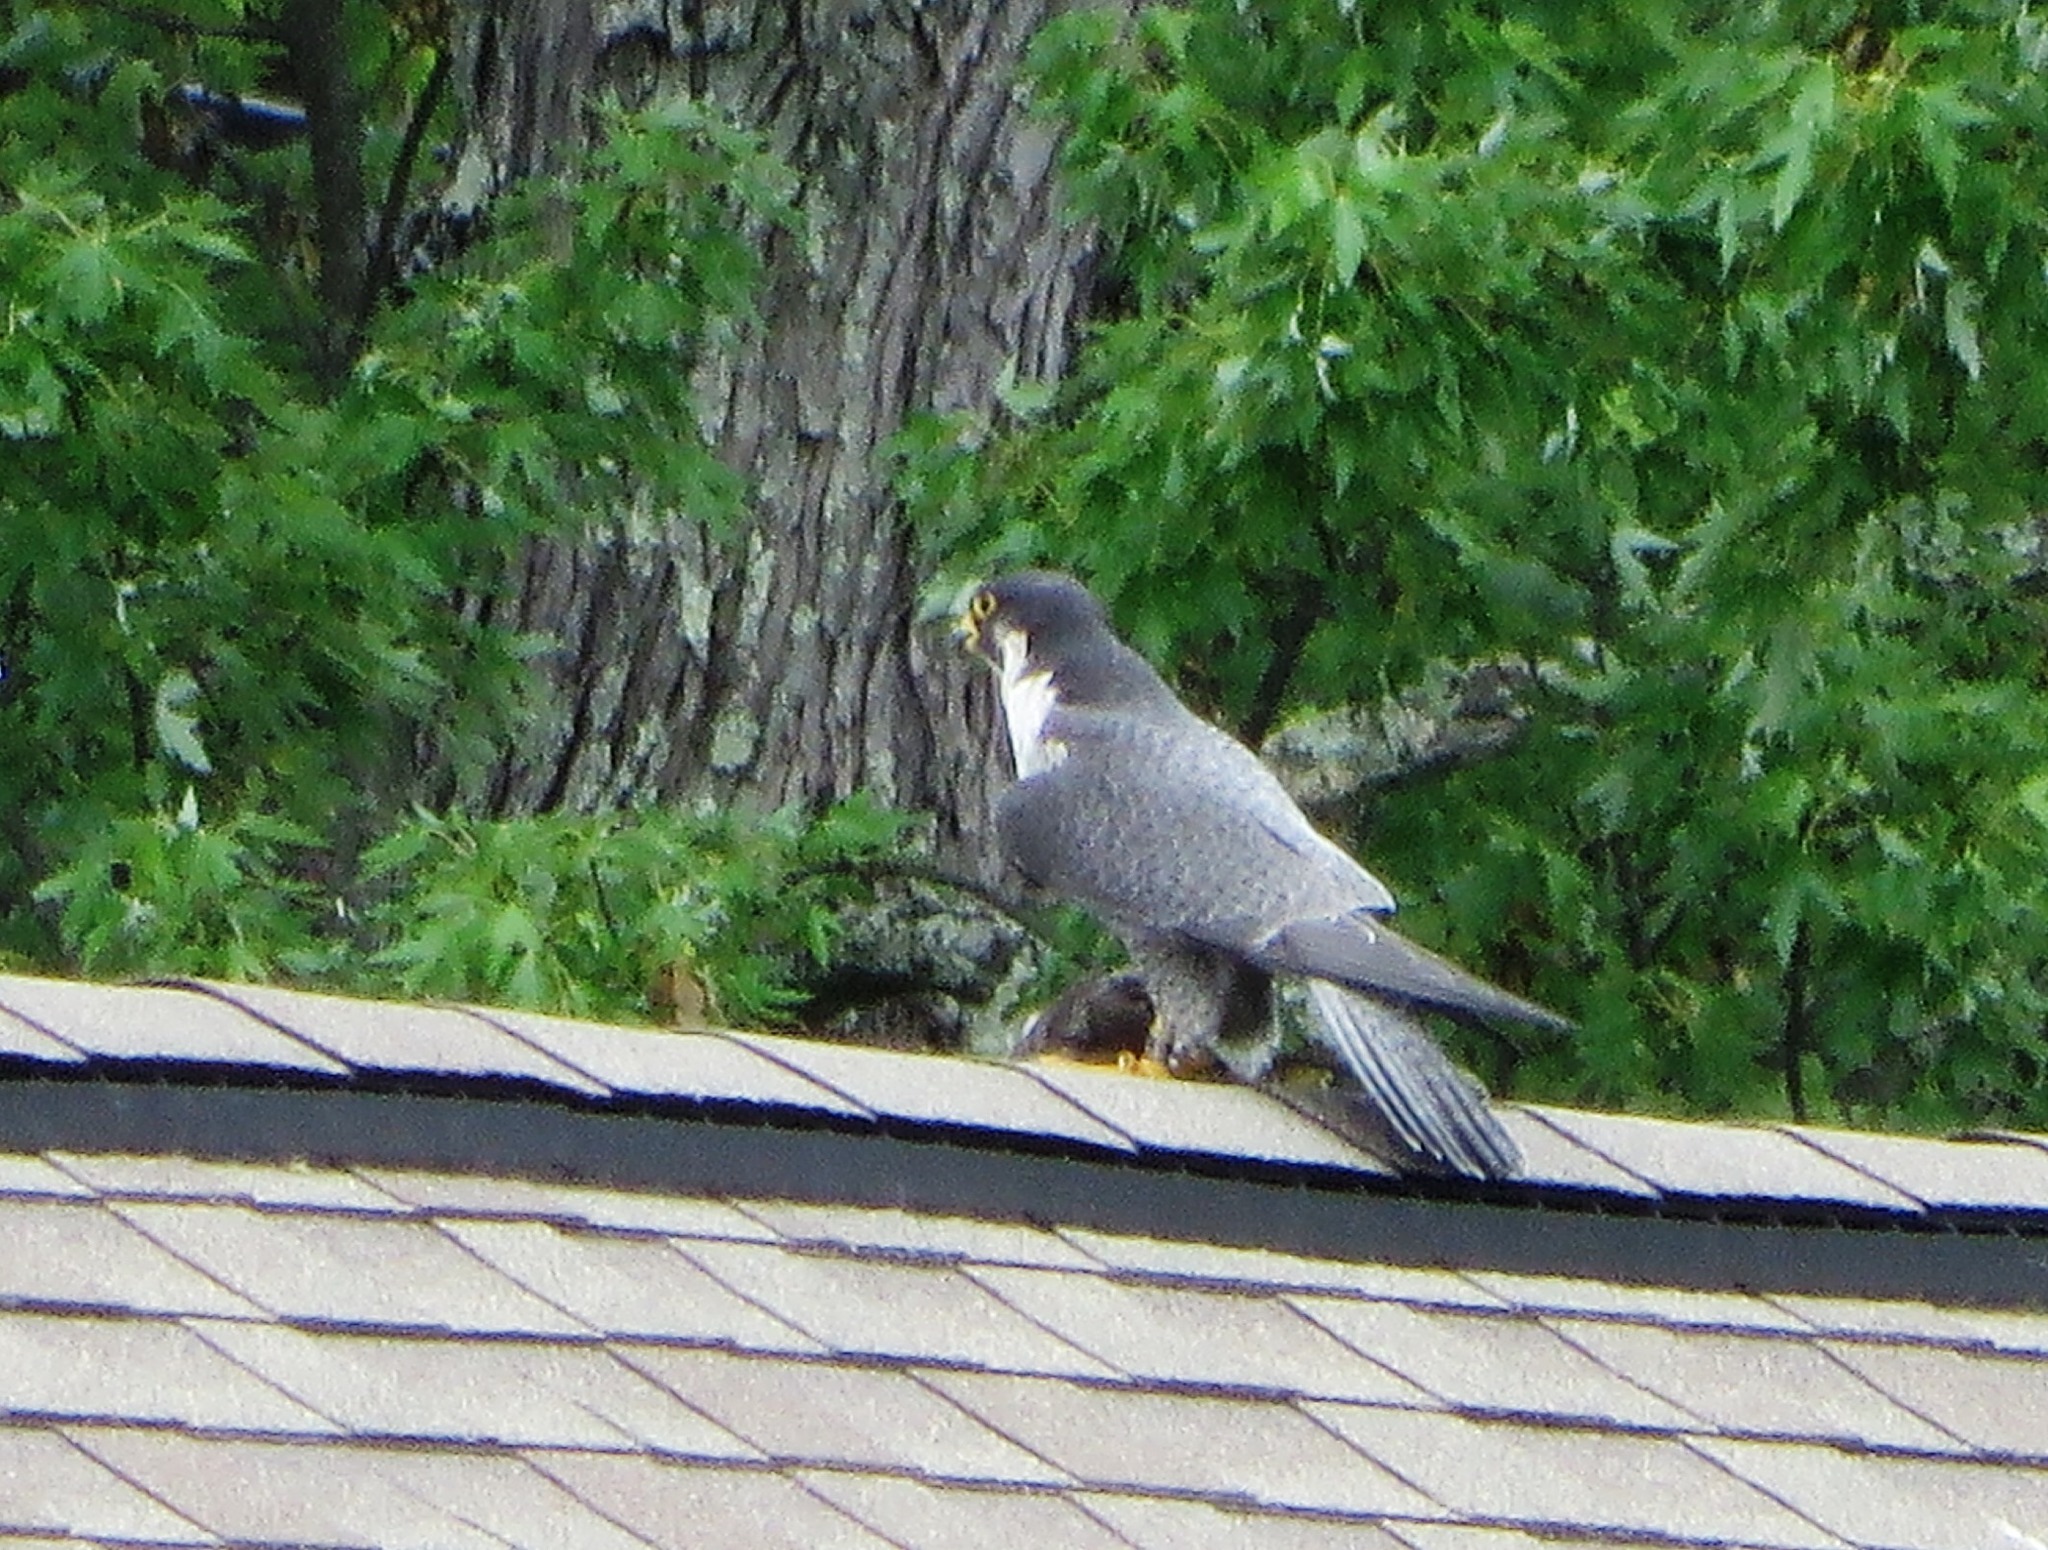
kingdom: Animalia
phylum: Chordata
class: Aves
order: Falconiformes
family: Falconidae
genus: Falco
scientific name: Falco peregrinus
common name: Peregrine falcon
